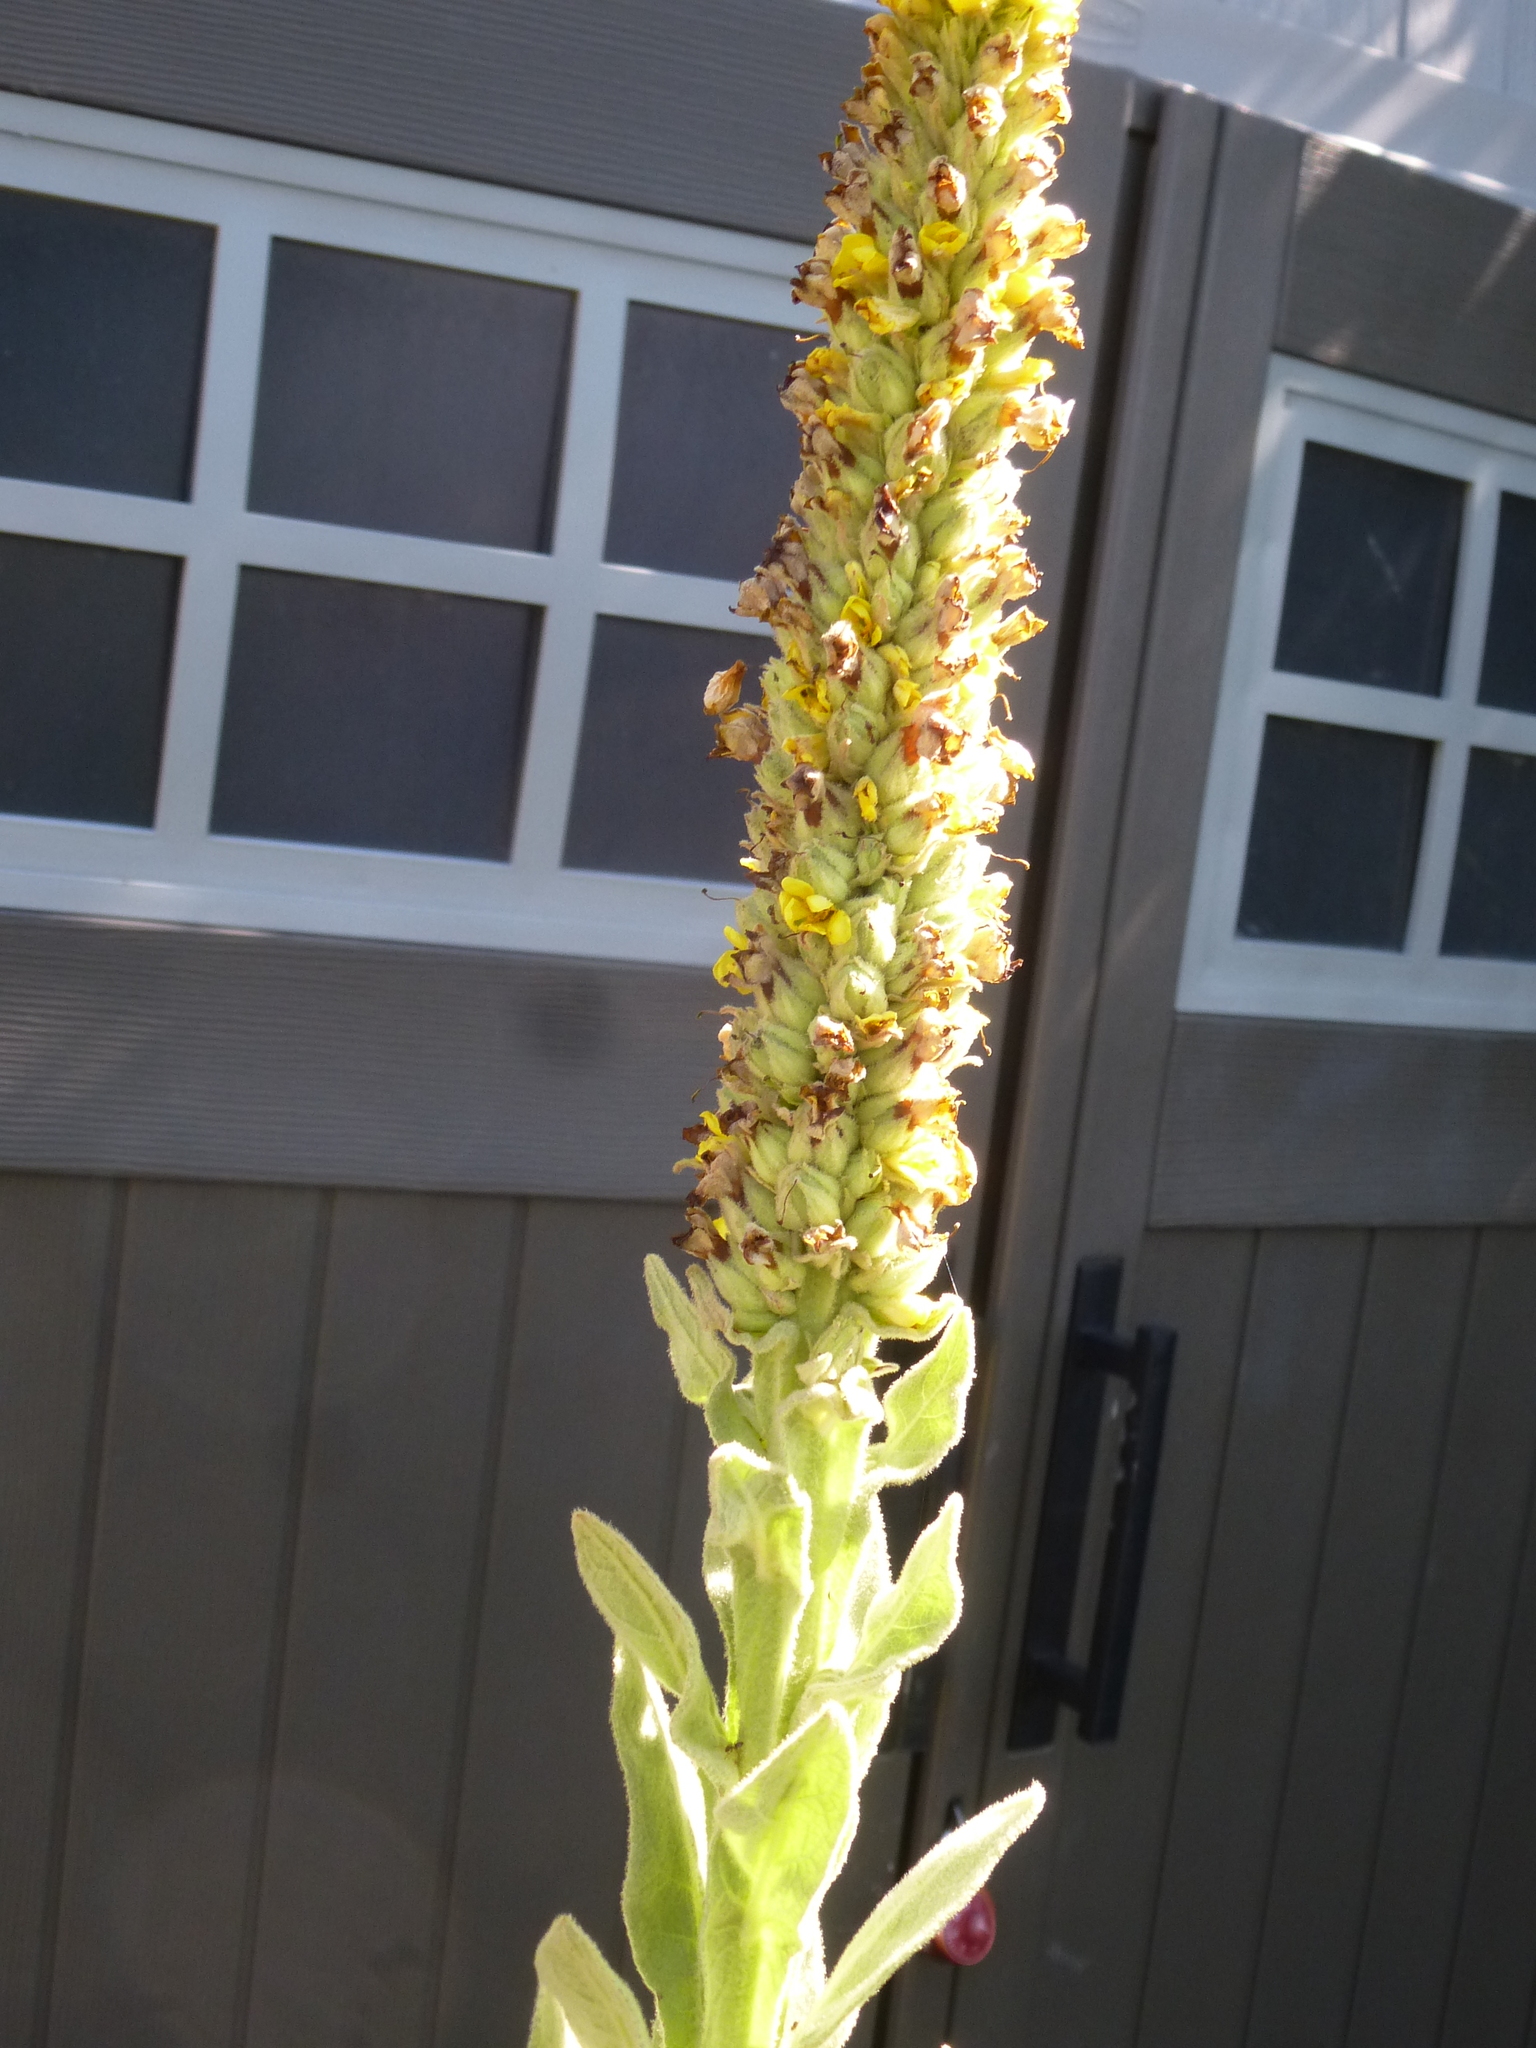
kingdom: Plantae
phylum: Tracheophyta
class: Magnoliopsida
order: Lamiales
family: Scrophulariaceae
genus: Verbascum
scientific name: Verbascum thapsus
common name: Common mullein
